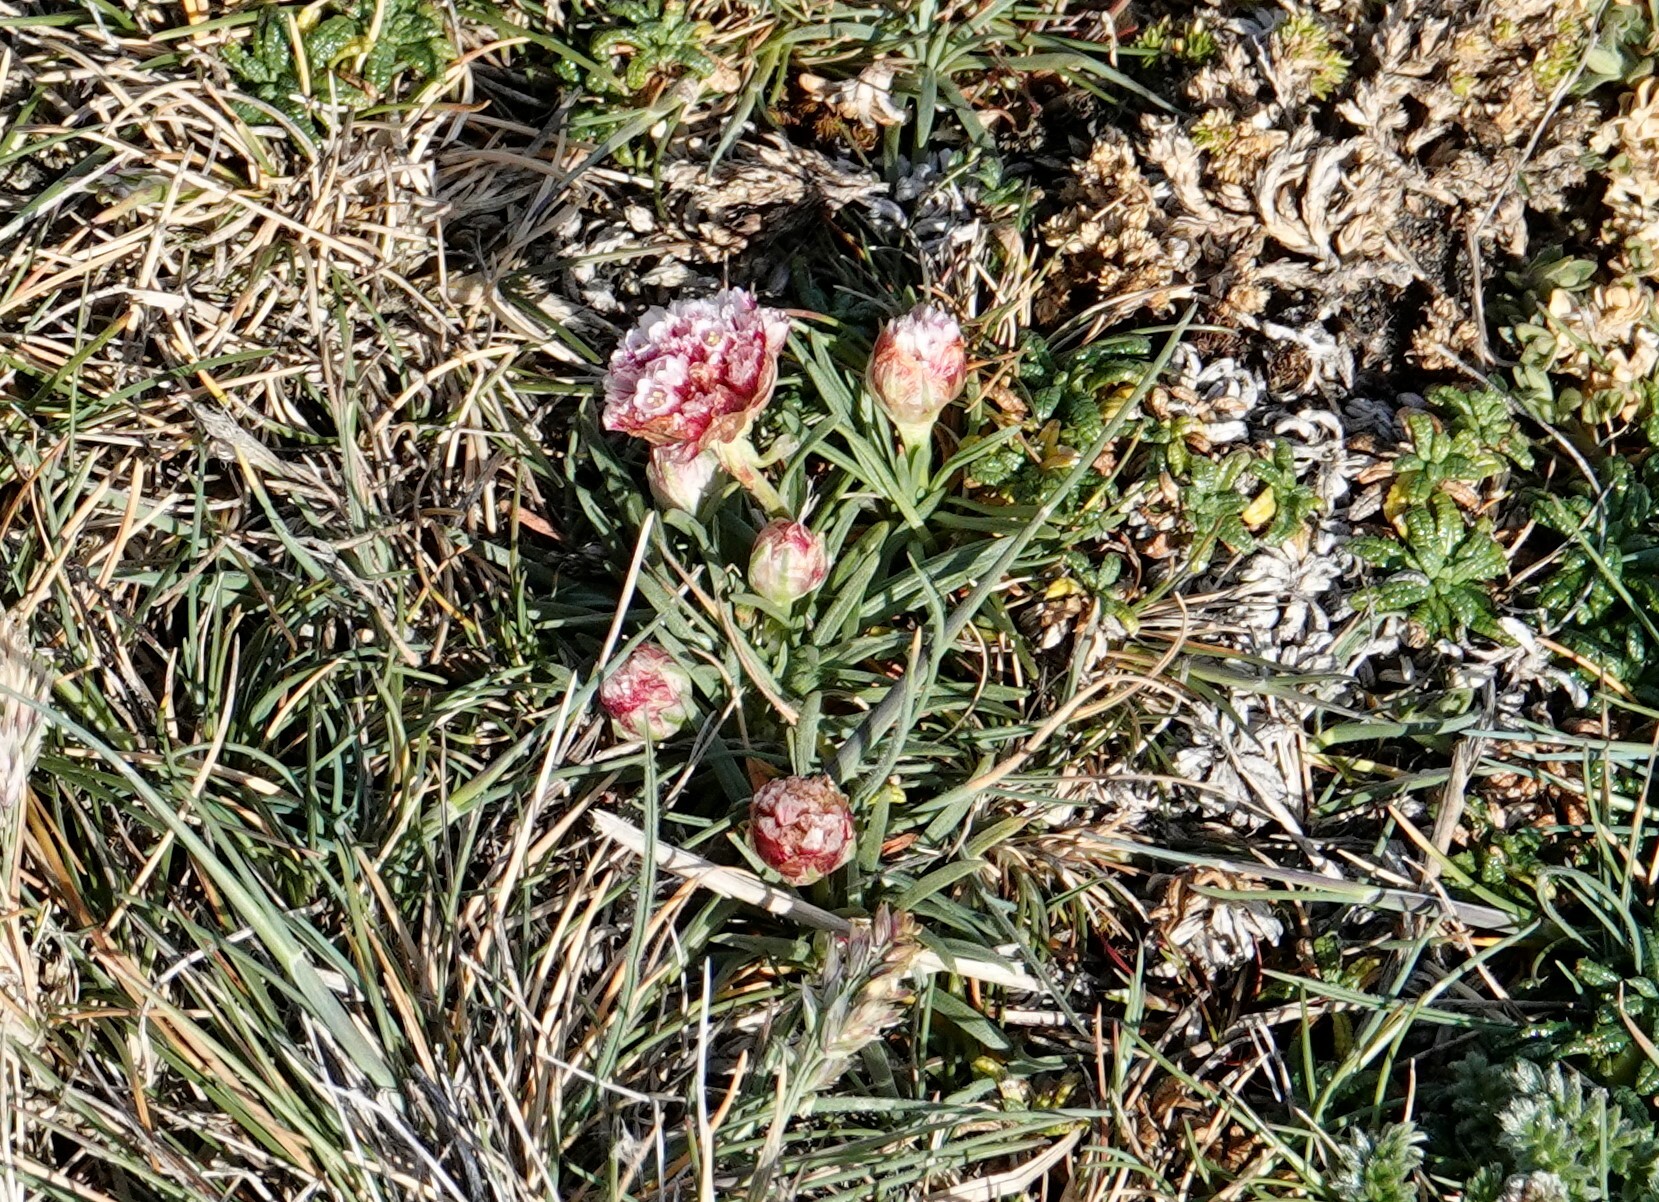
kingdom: Plantae
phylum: Tracheophyta
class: Magnoliopsida
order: Caryophyllales
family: Plumbaginaceae
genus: Armeria
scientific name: Armeria curvifolia
